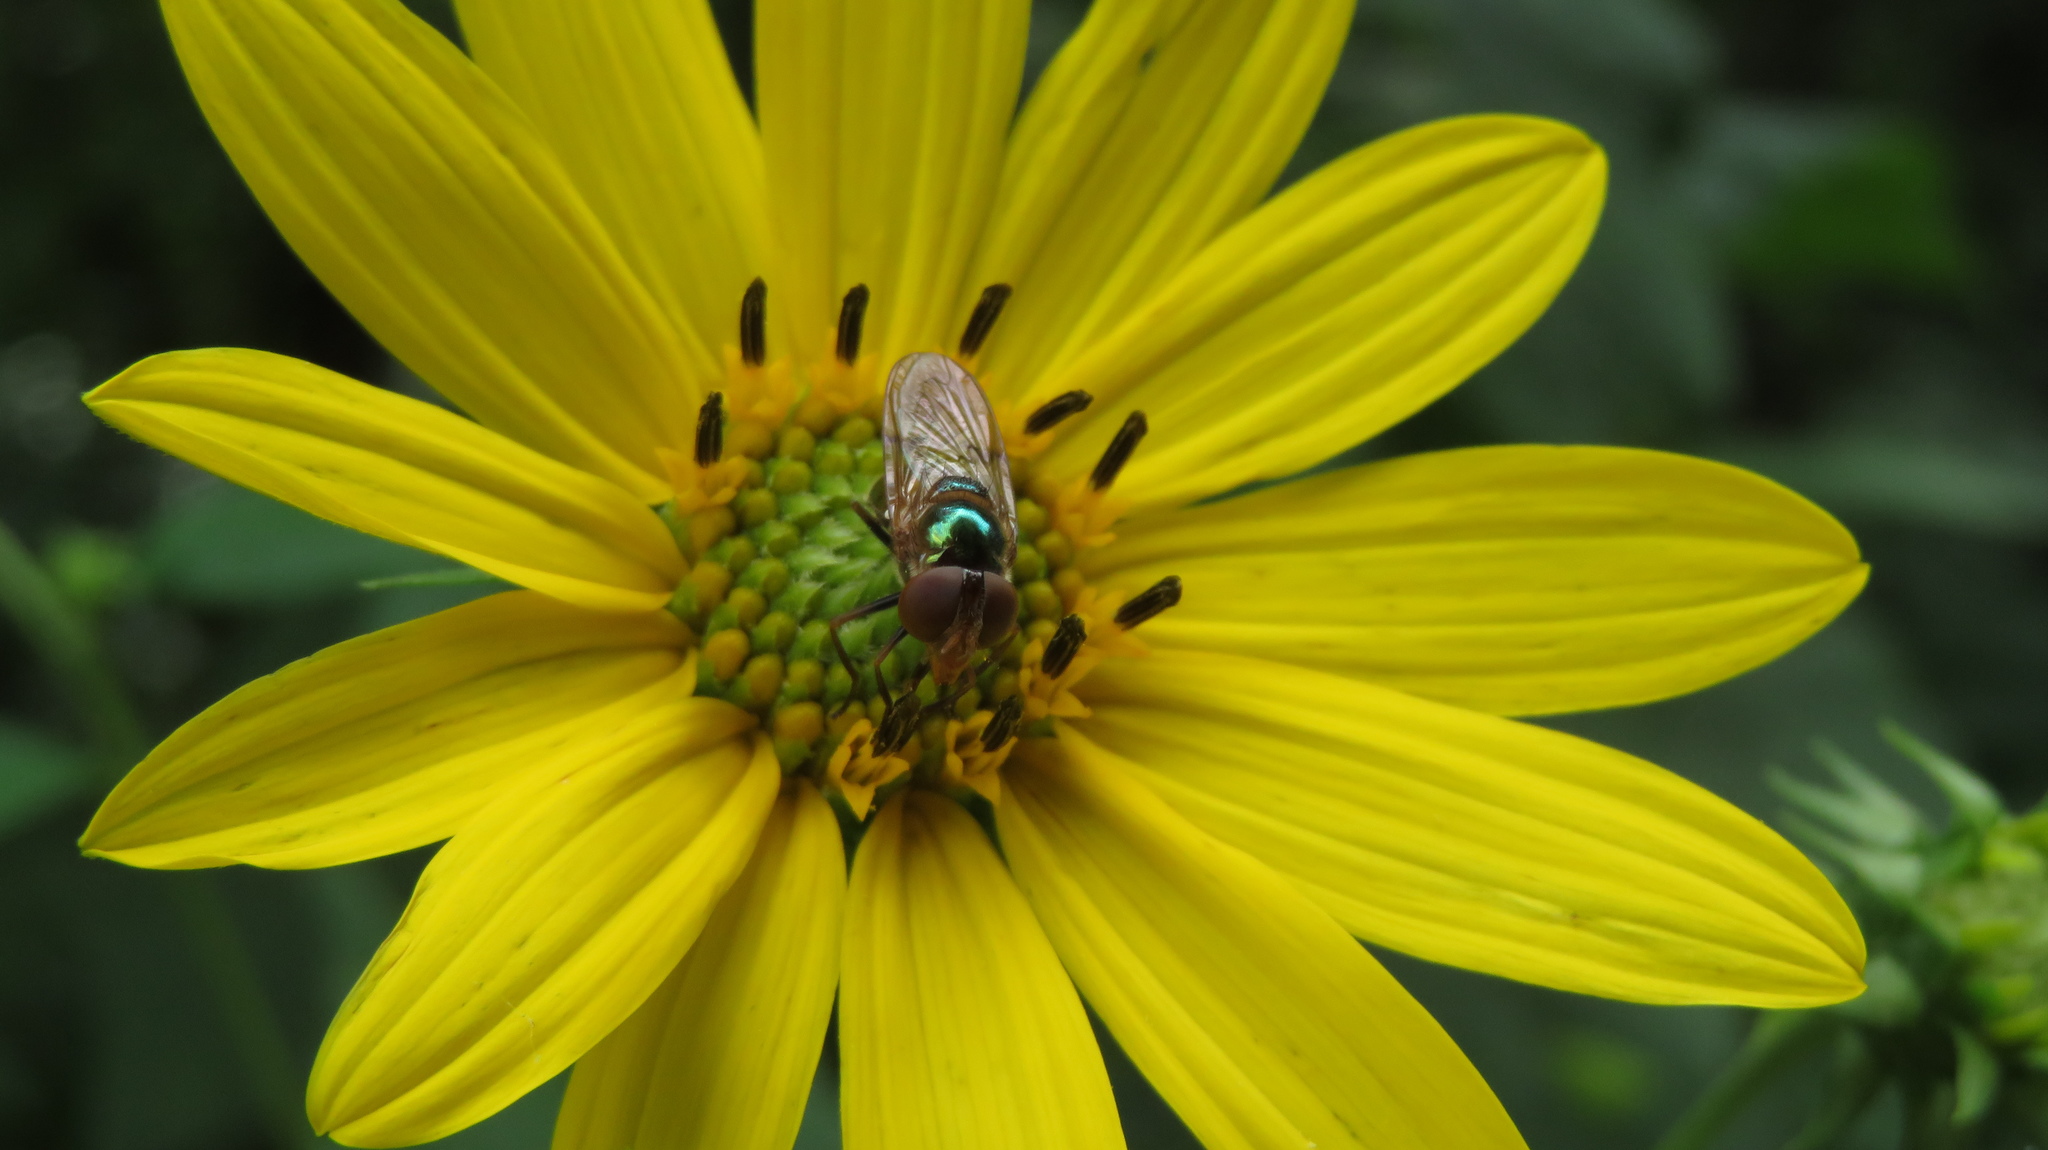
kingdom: Animalia
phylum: Arthropoda
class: Insecta
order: Diptera
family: Syrphidae
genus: Copestylum
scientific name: Copestylum vesicularium
